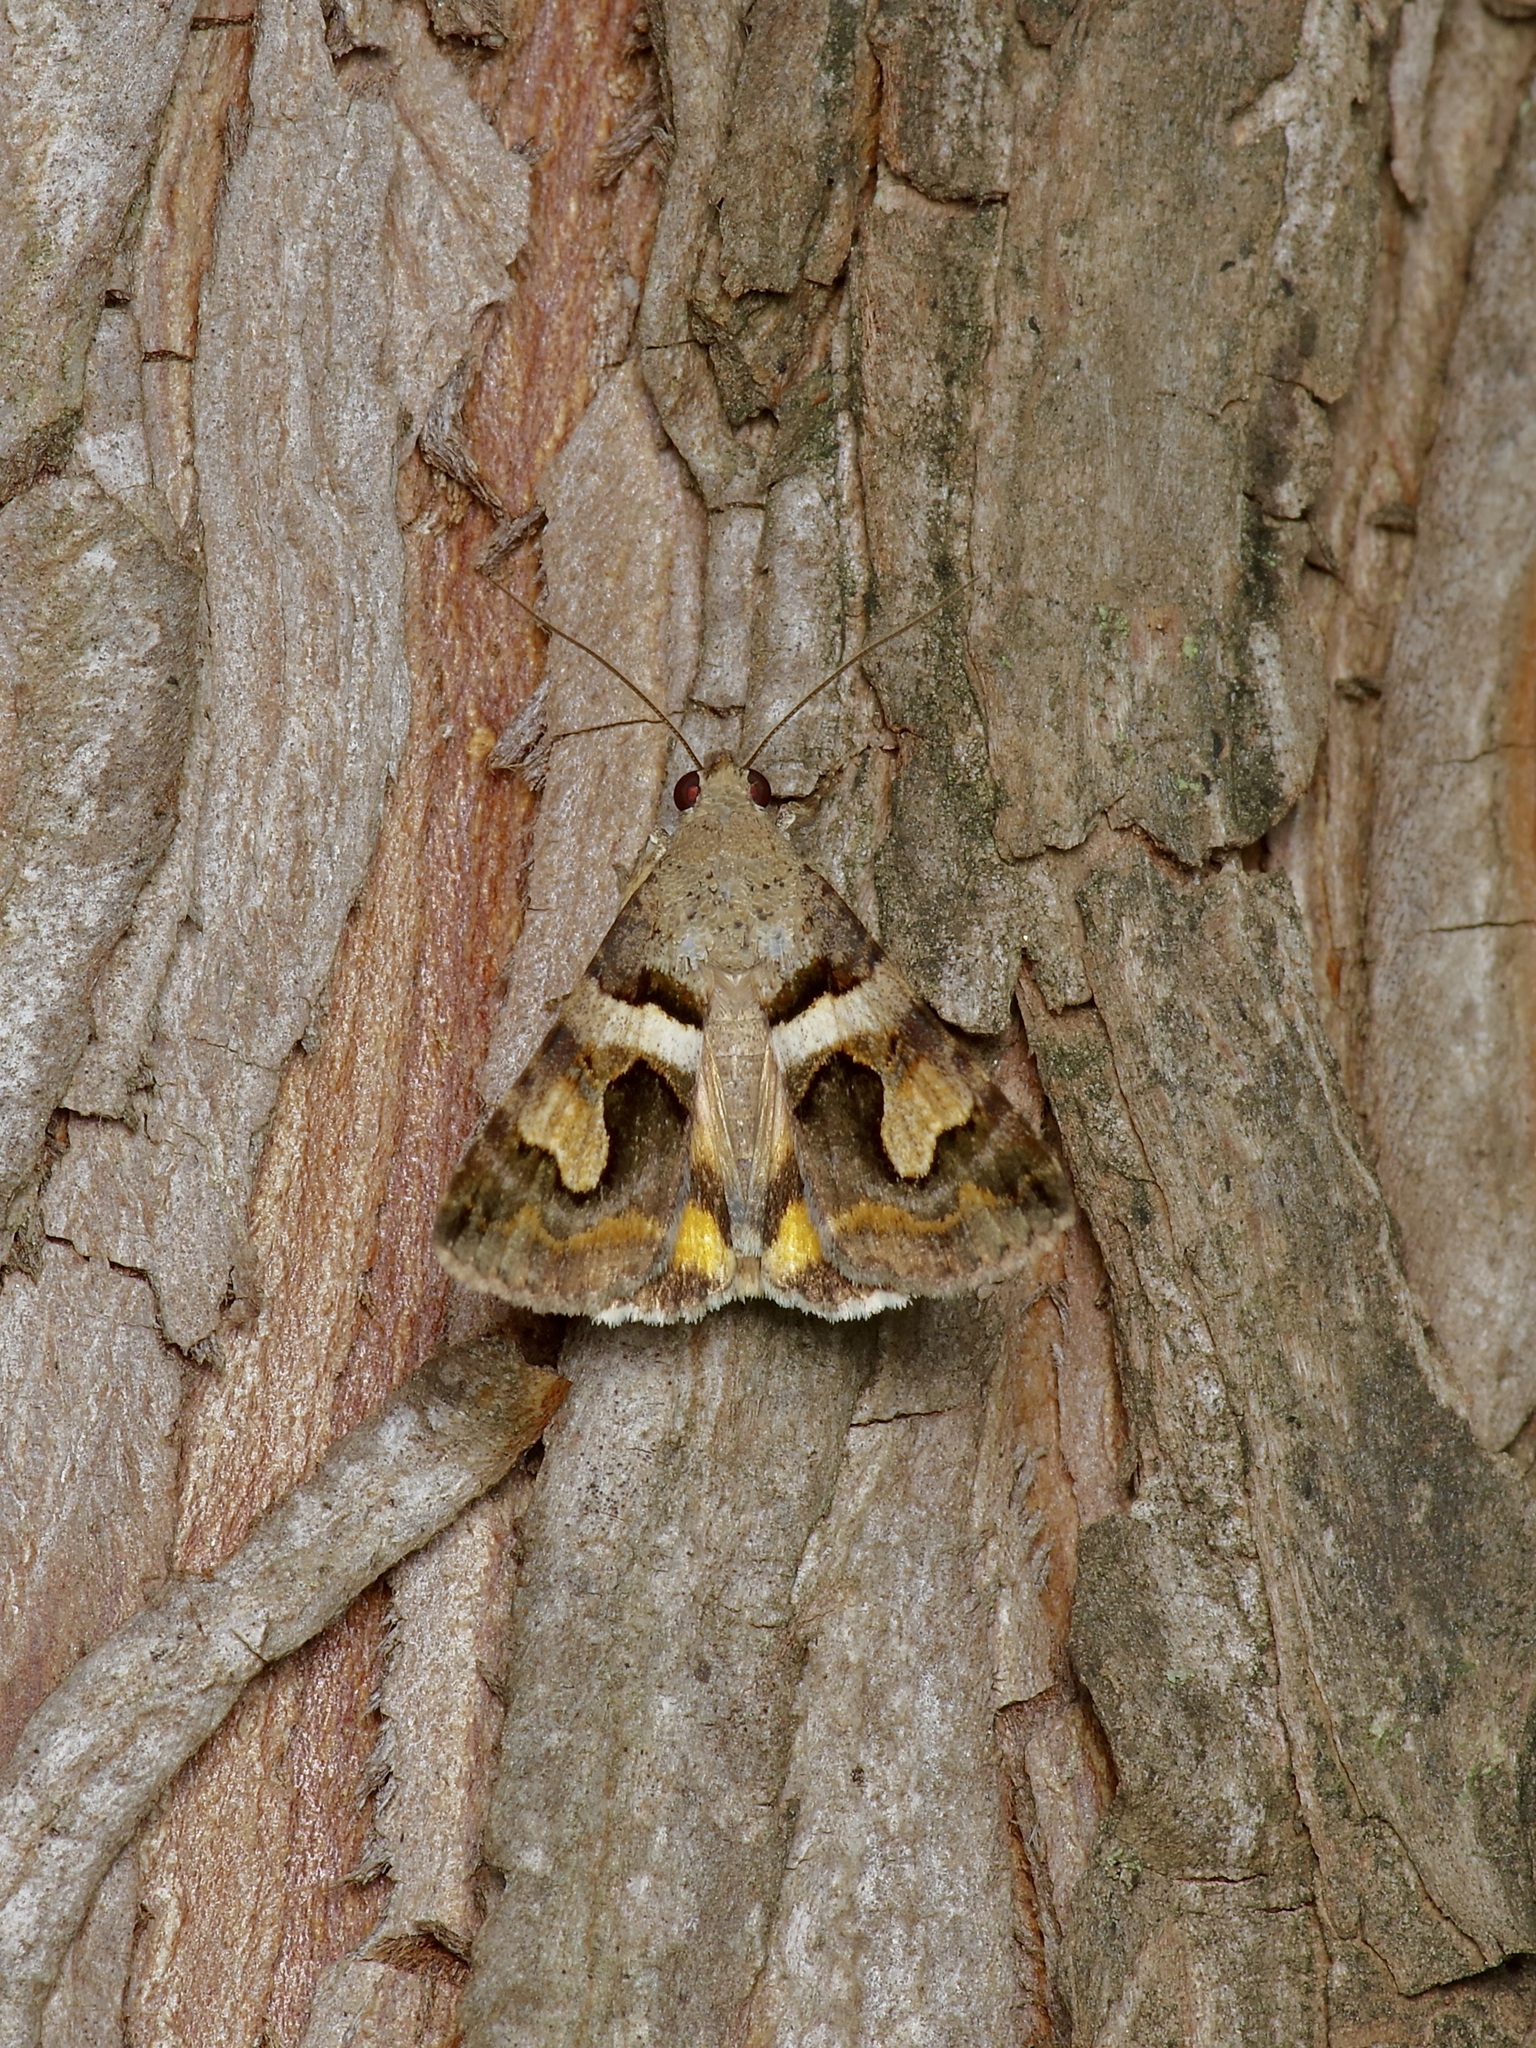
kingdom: Animalia
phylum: Arthropoda
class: Insecta
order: Lepidoptera
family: Erebidae
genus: Bulia
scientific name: Bulia
